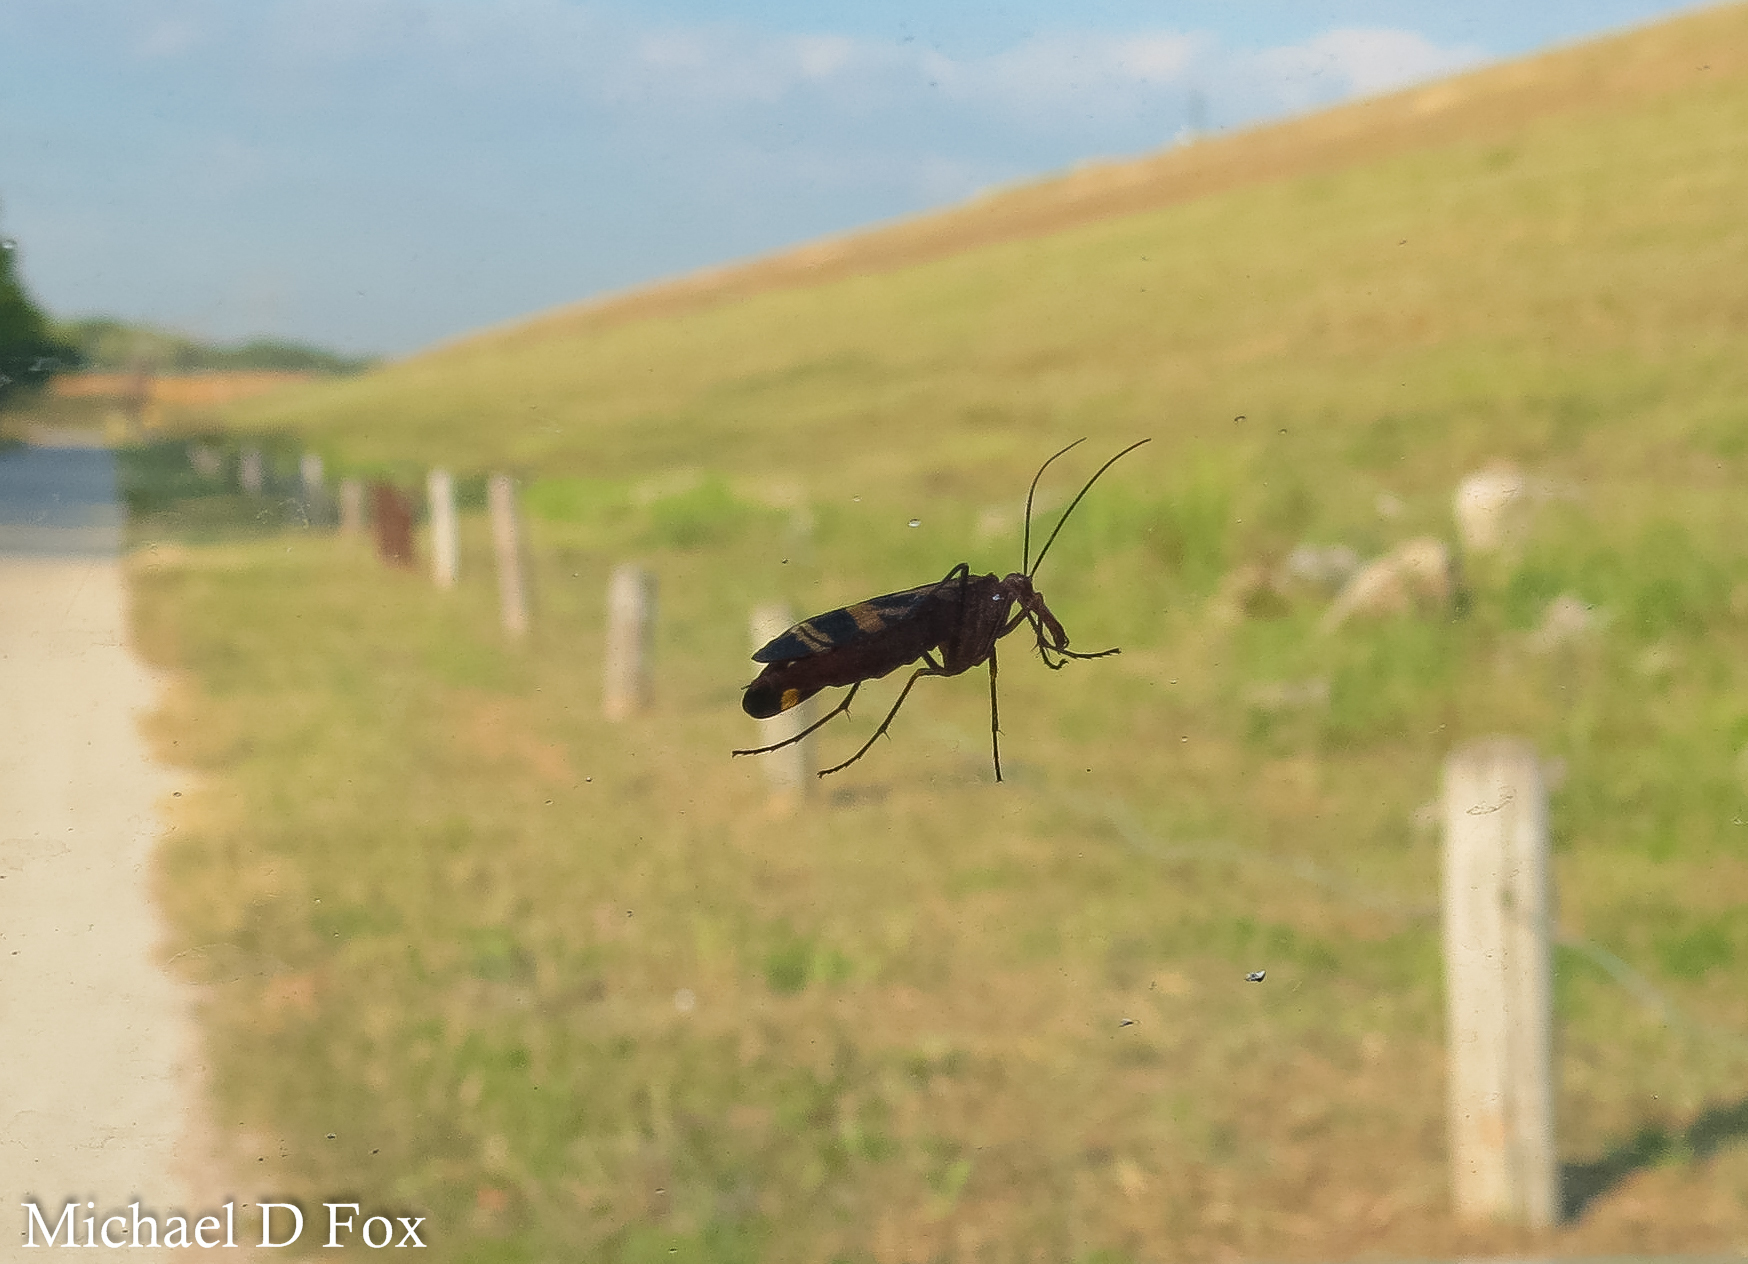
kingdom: Animalia
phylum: Arthropoda
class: Insecta
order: Mecoptera
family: Panorpidae
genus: Panorpa
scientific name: Panorpa nuptialis
